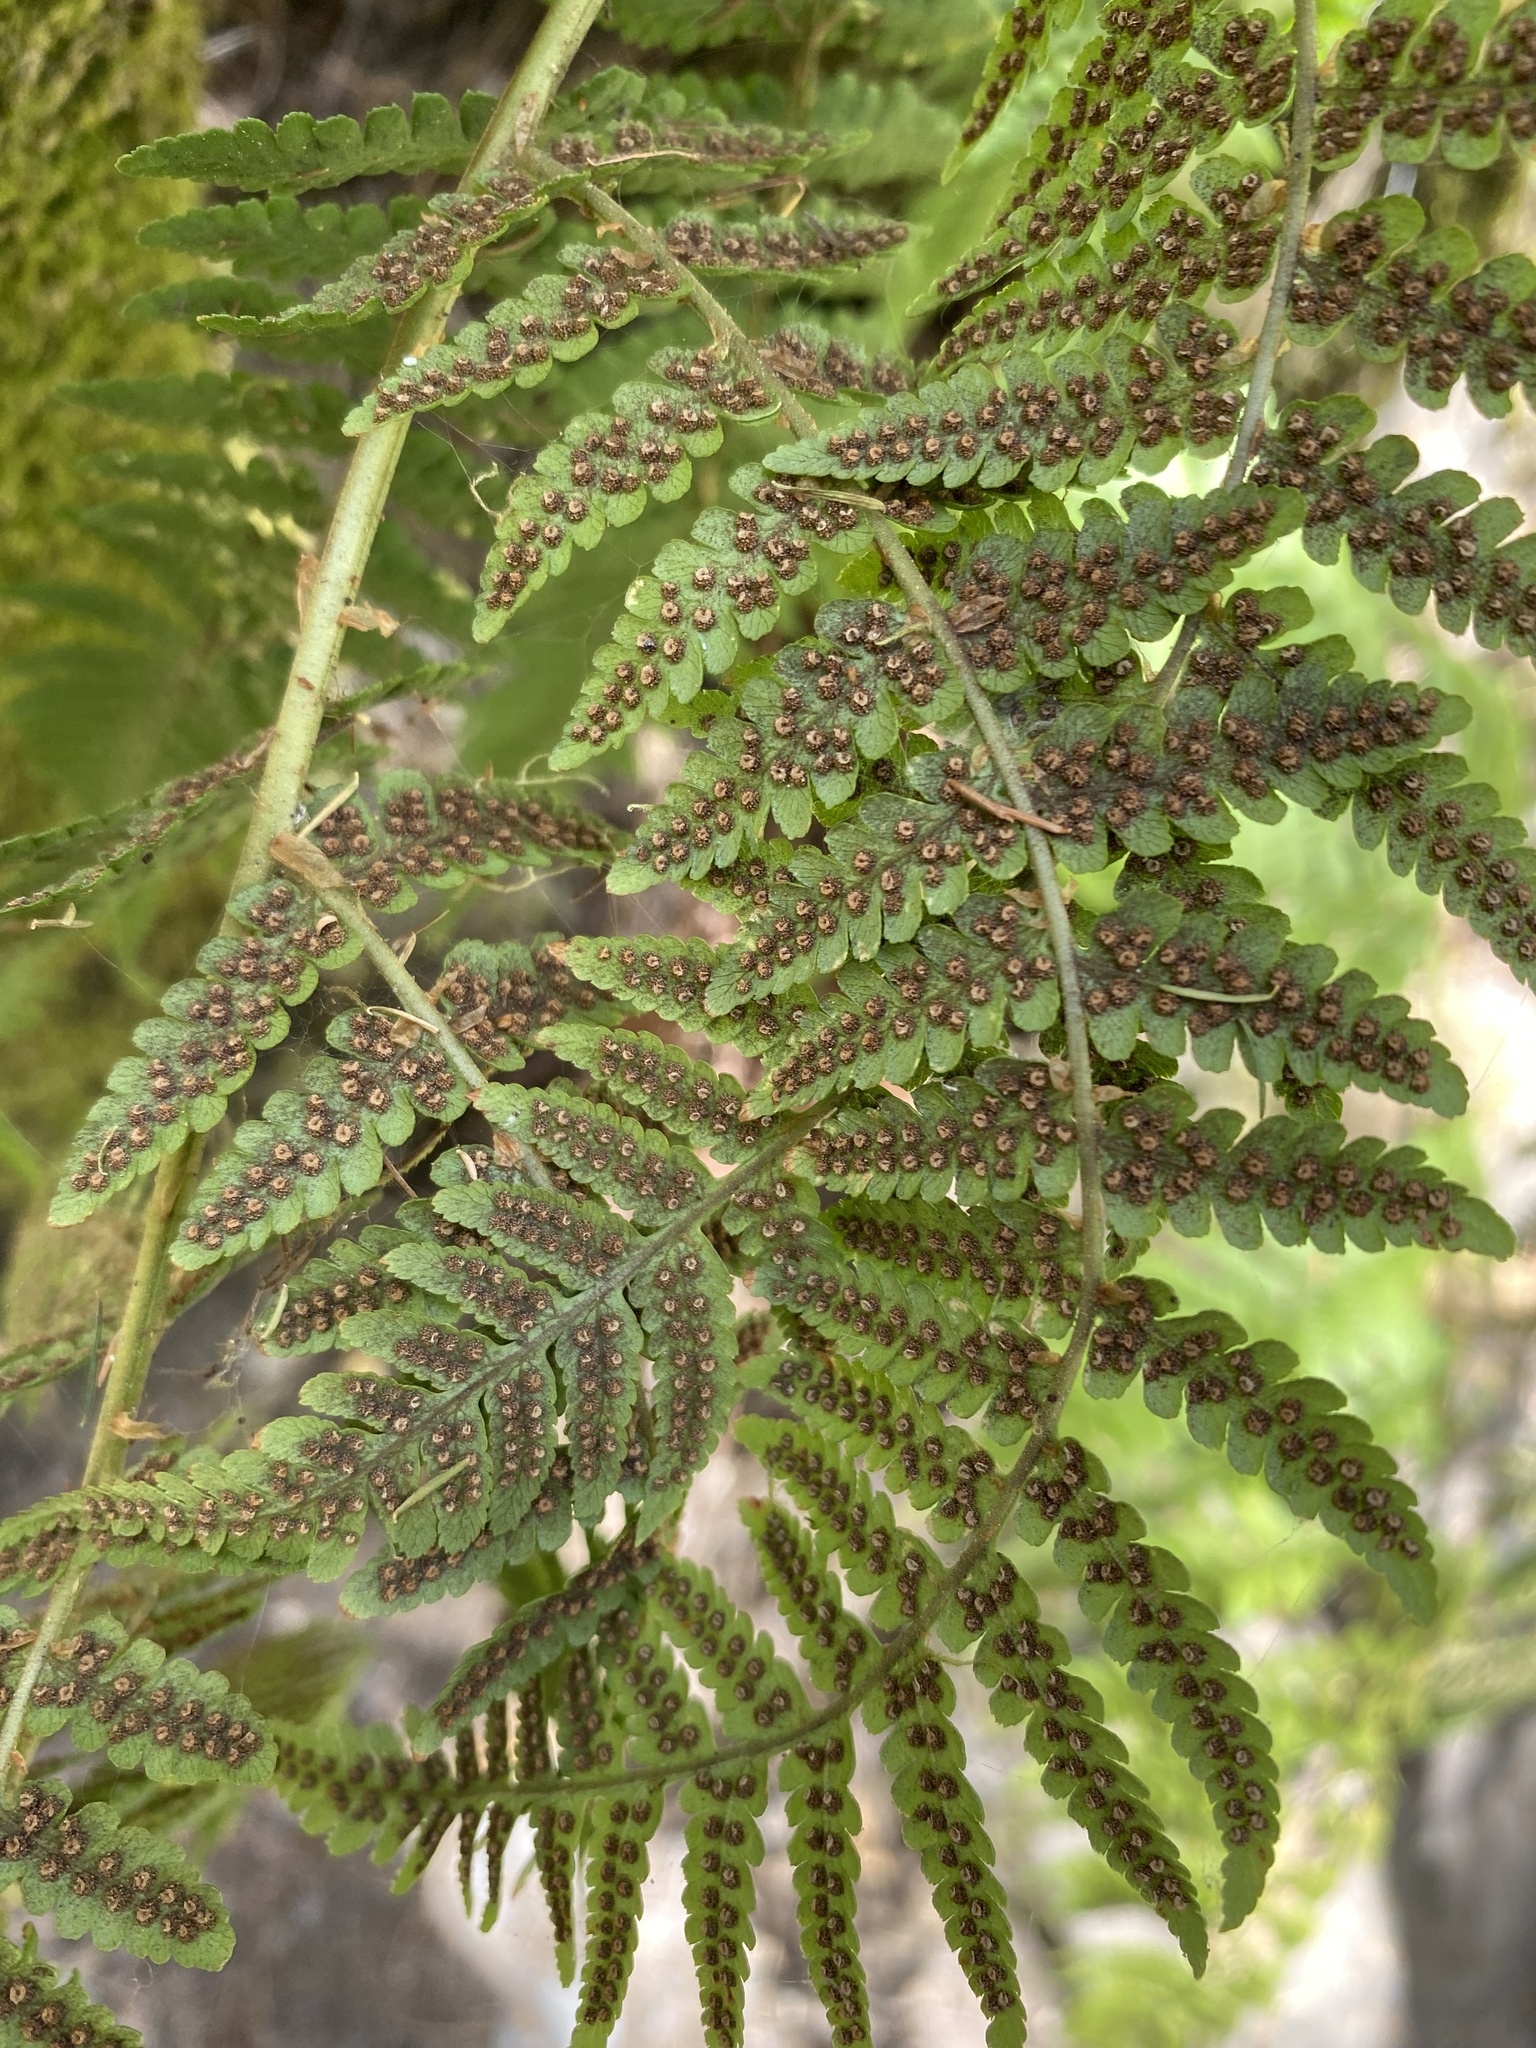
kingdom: Plantae
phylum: Tracheophyta
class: Polypodiopsida
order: Polypodiales
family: Dryopteridaceae
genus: Dryopteris
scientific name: Dryopteris oligodonta
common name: Canarian male-fern
